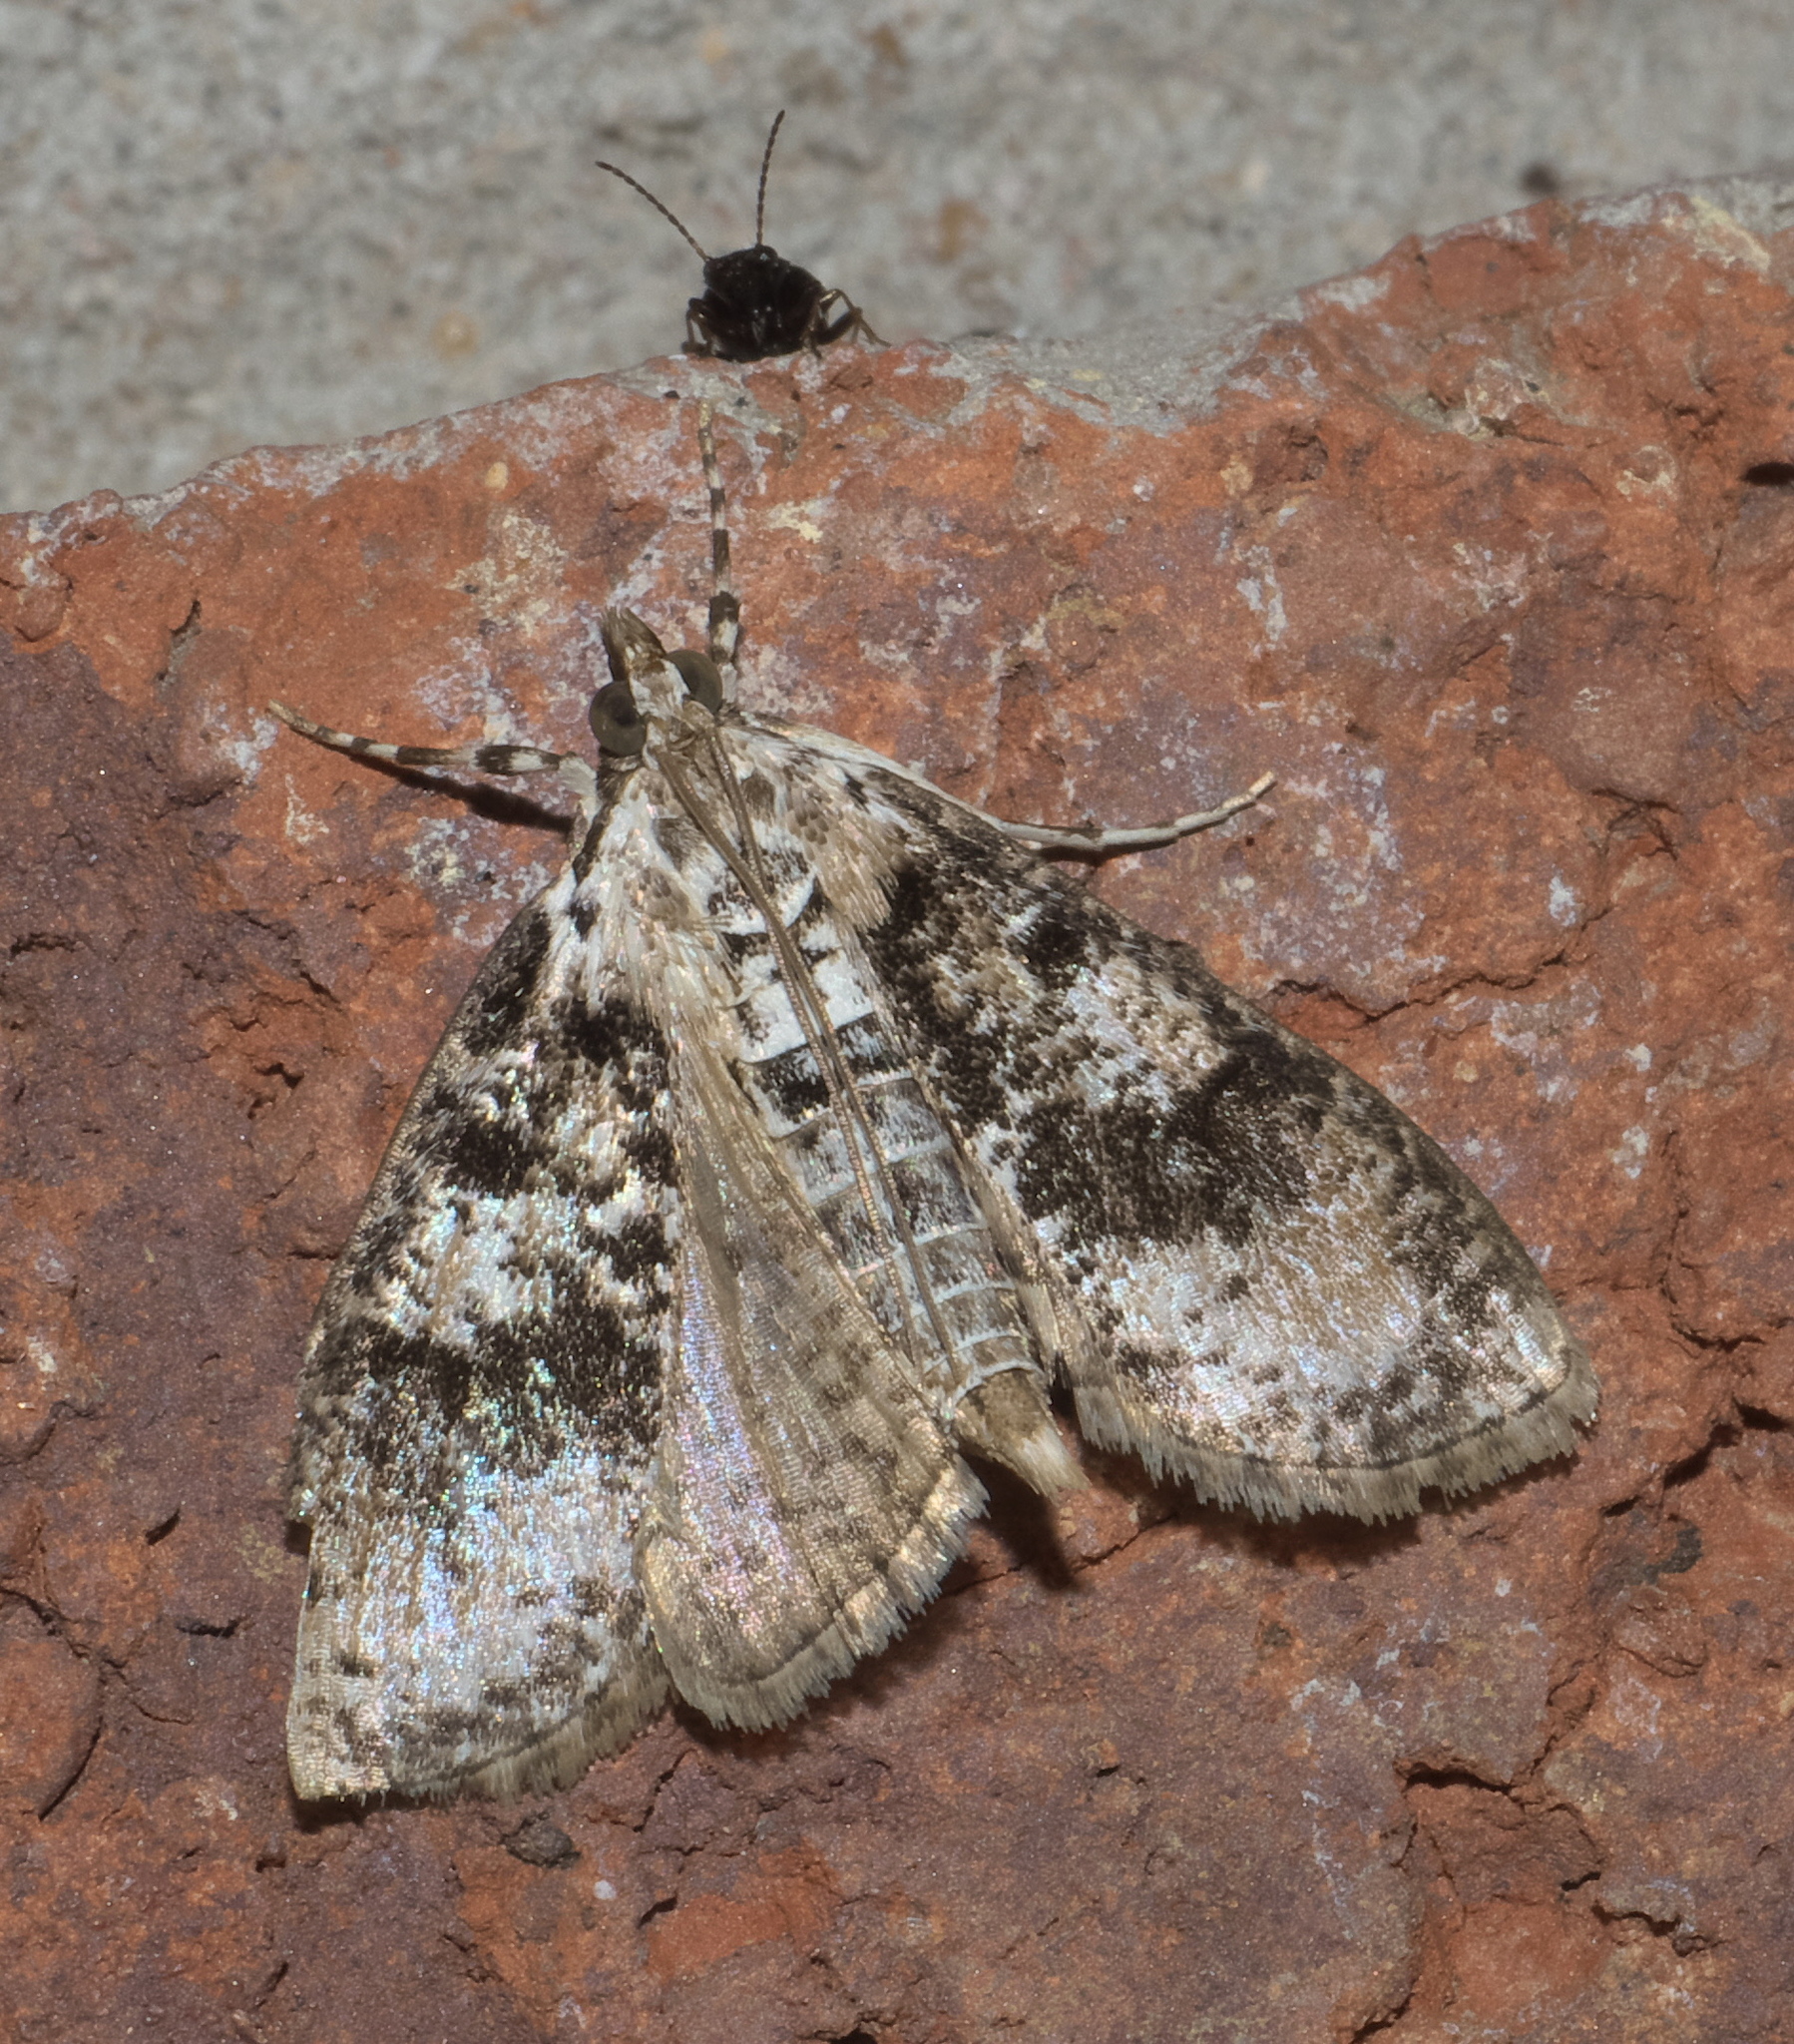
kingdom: Animalia
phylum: Arthropoda
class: Insecta
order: Lepidoptera
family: Crambidae
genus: Palpita
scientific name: Palpita magniferalis
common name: Splendid palpita moth
